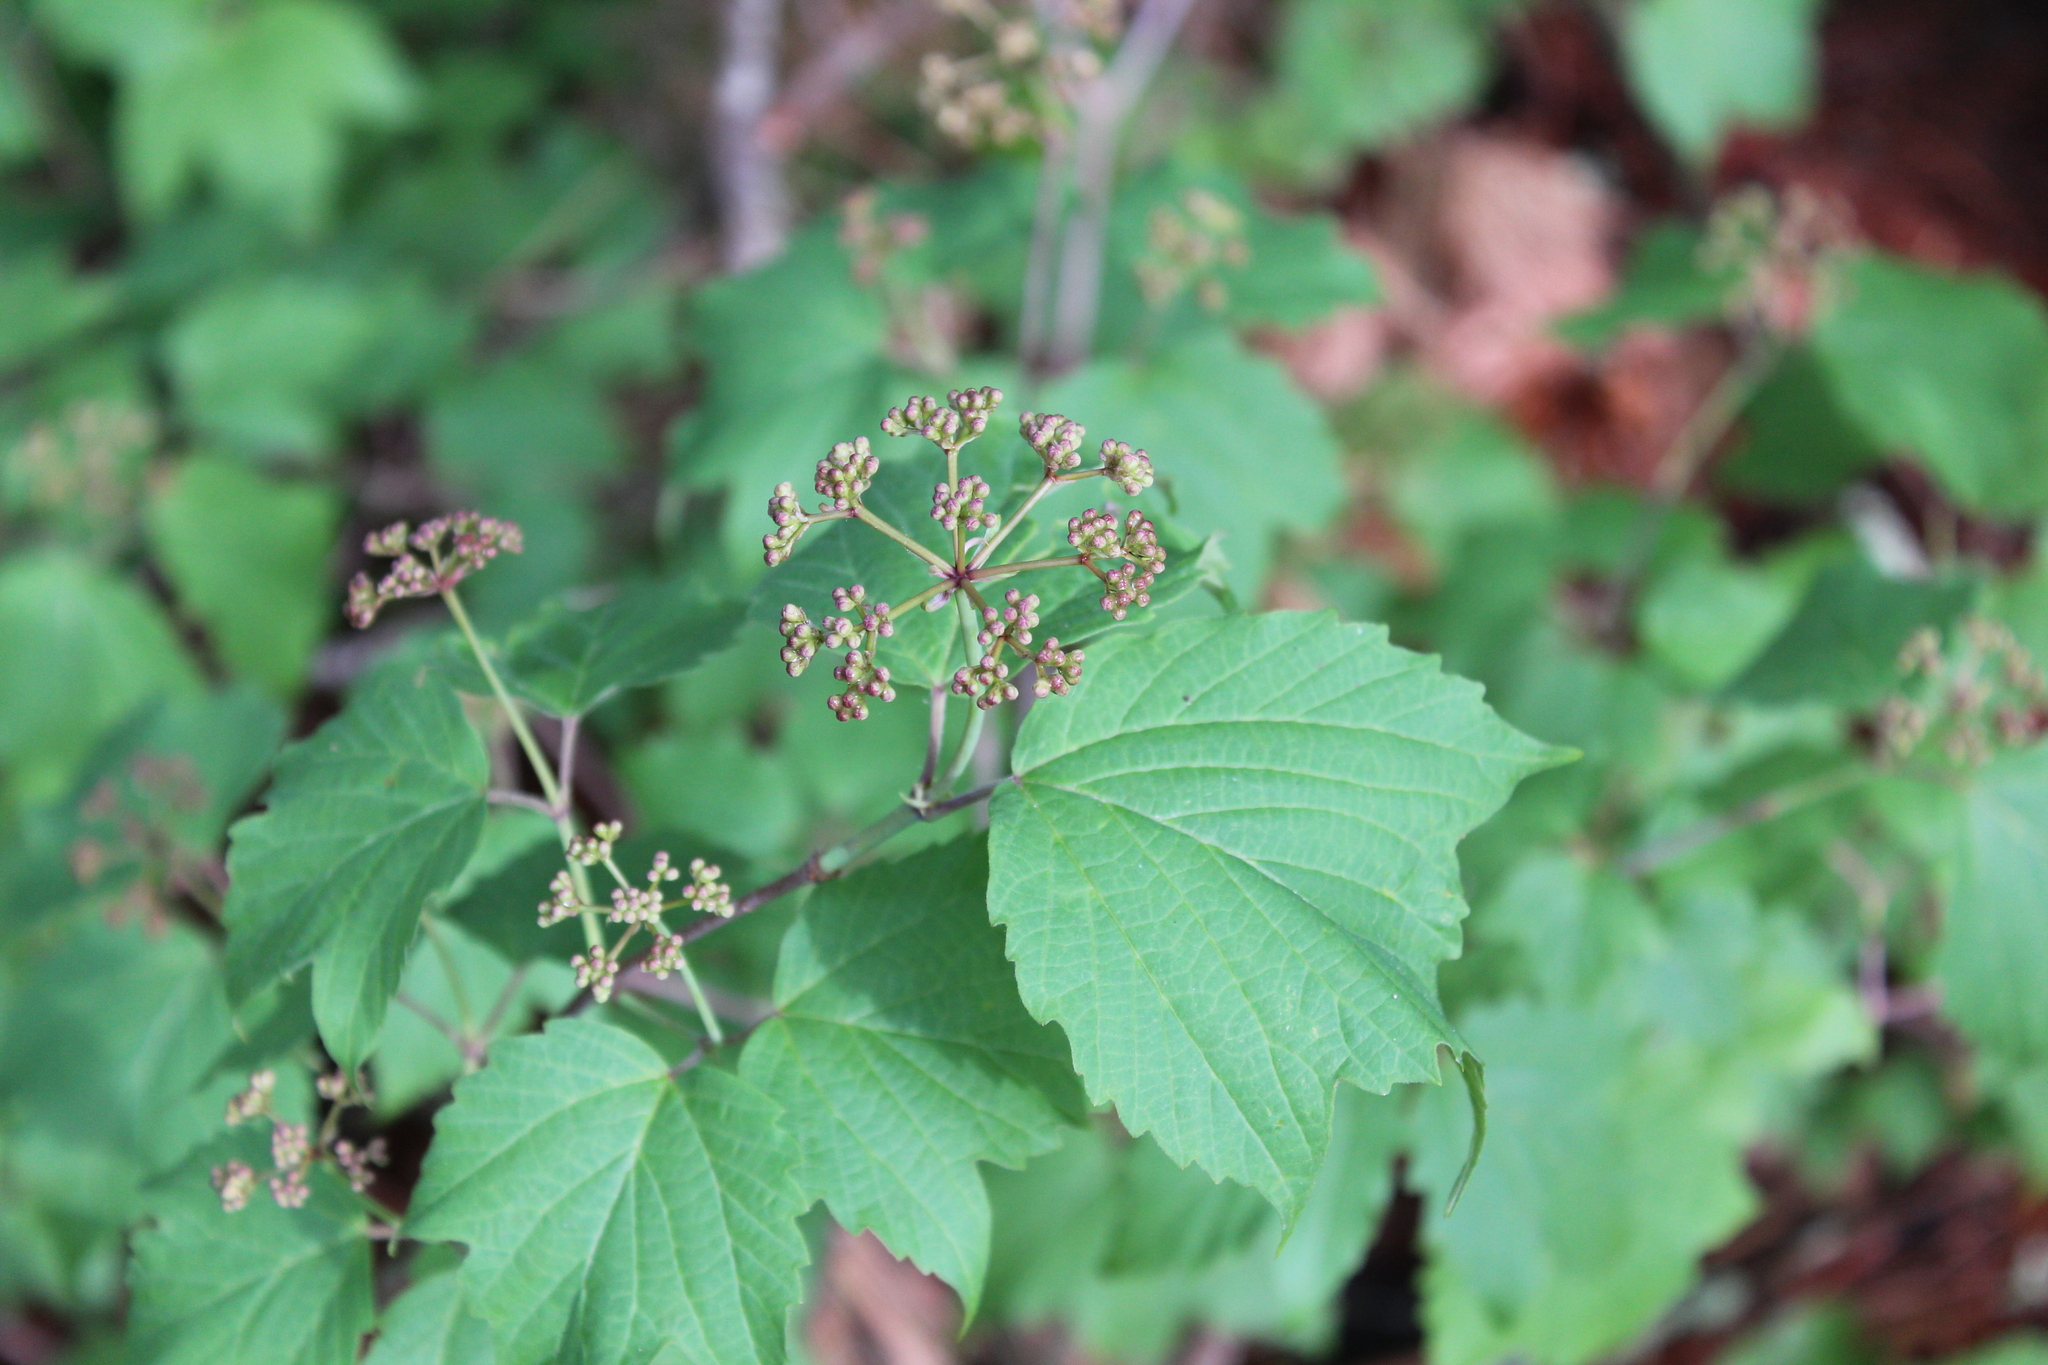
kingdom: Plantae
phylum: Tracheophyta
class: Magnoliopsida
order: Dipsacales
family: Viburnaceae
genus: Viburnum
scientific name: Viburnum acerifolium
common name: Dockmackie
